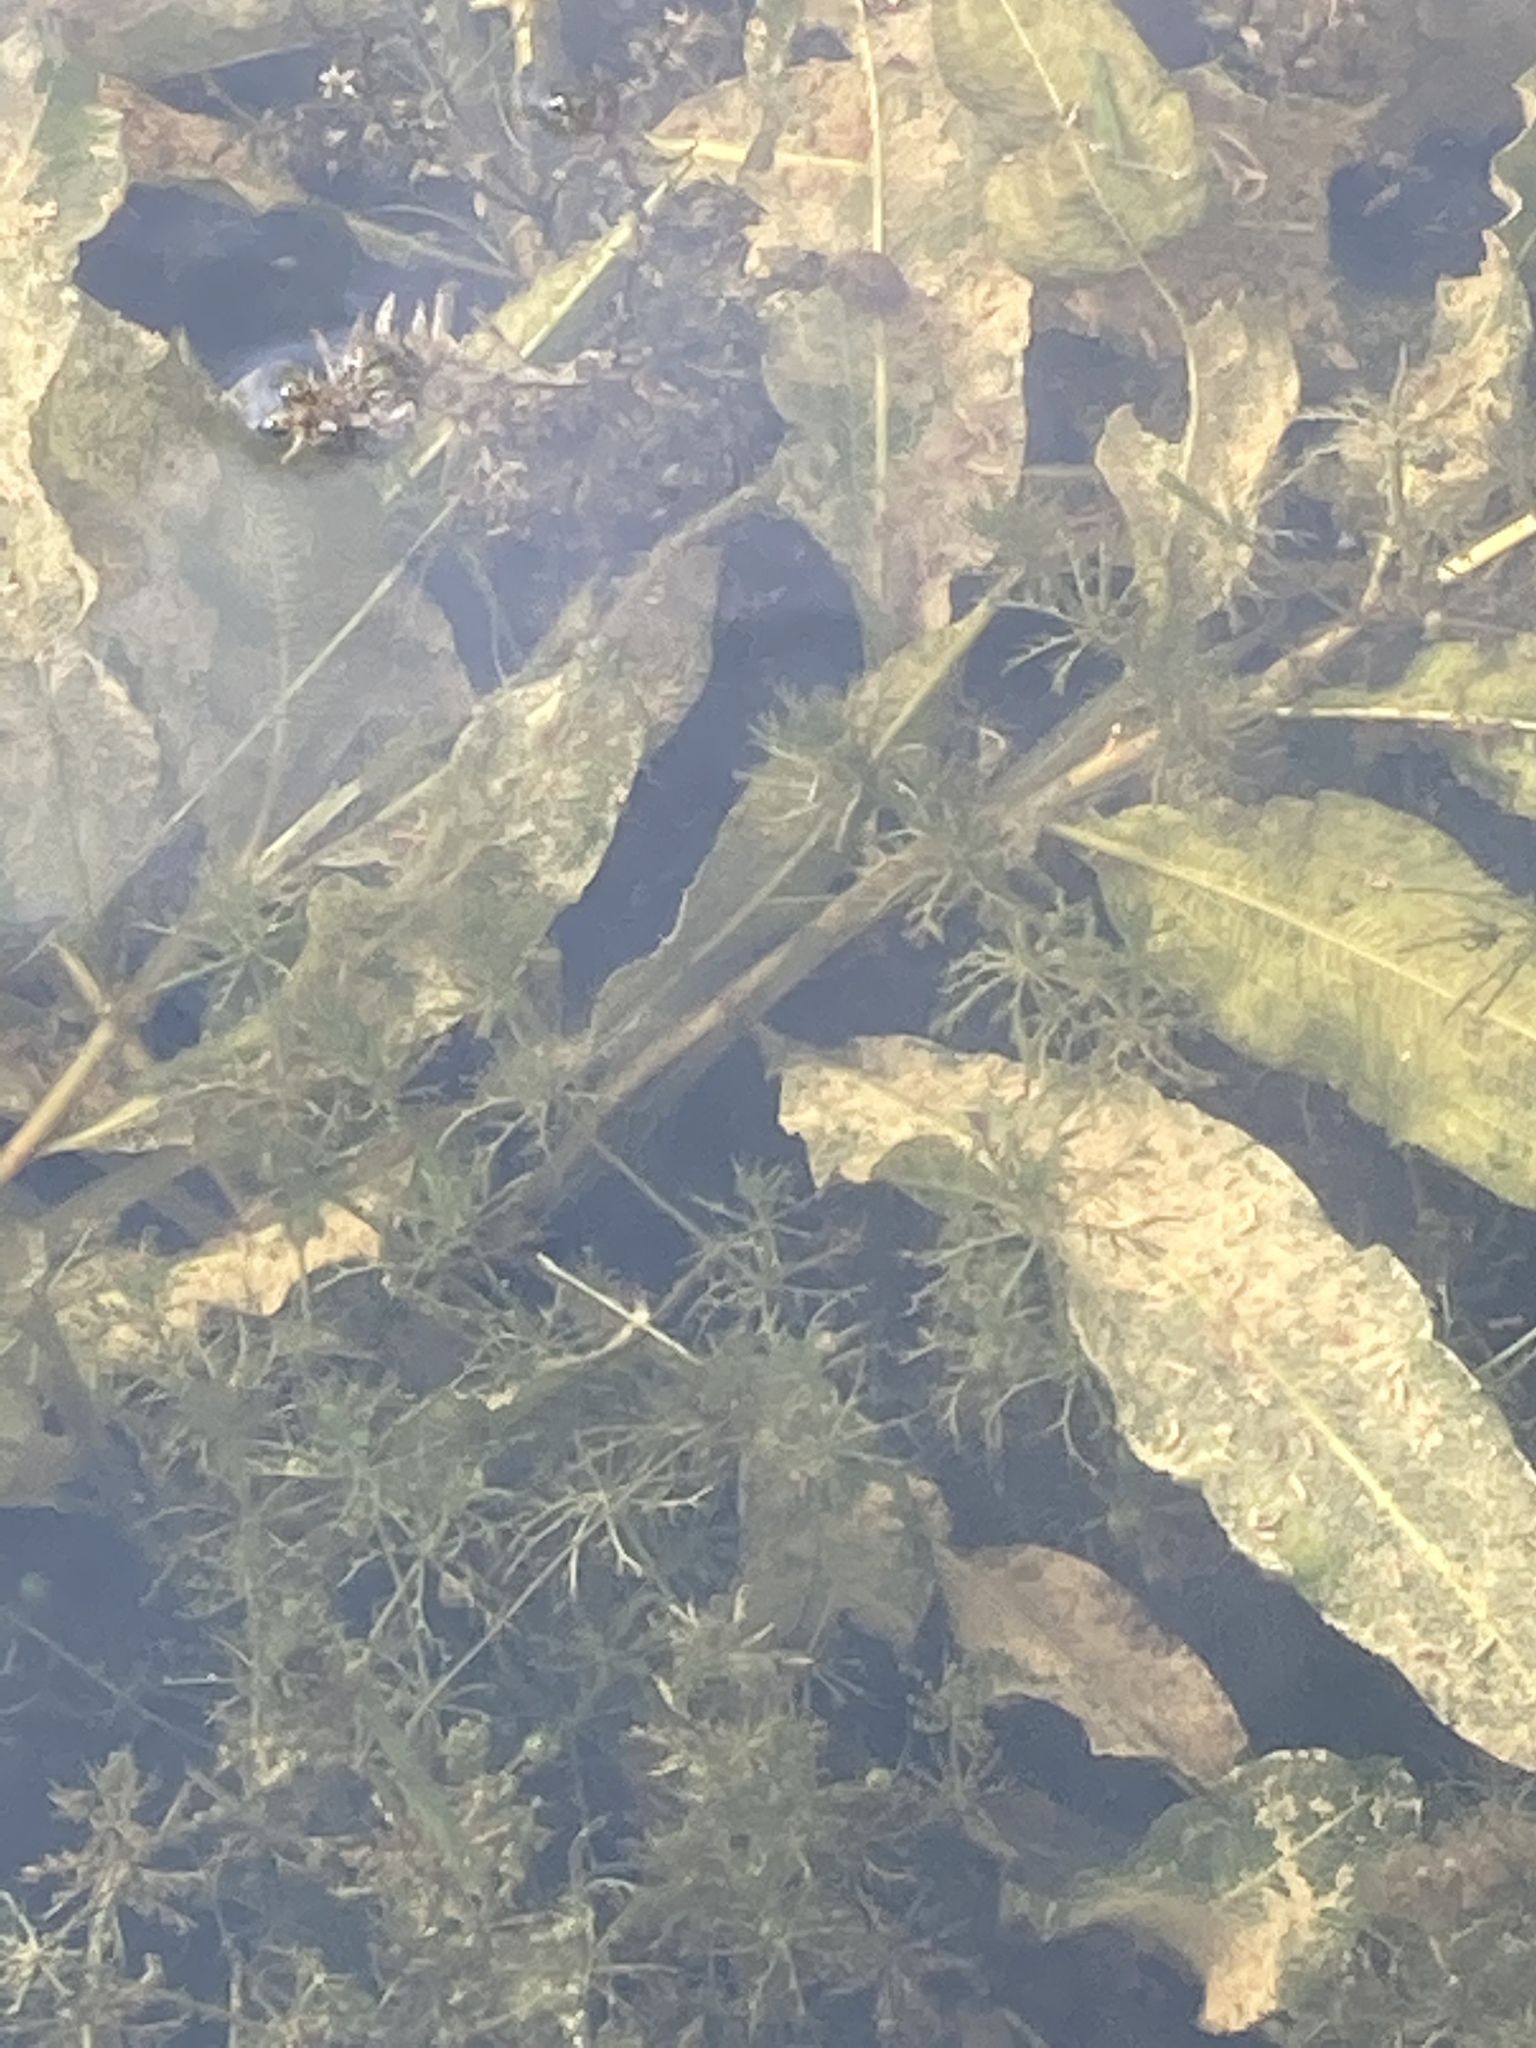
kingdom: Plantae
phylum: Tracheophyta
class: Liliopsida
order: Alismatales
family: Potamogetonaceae
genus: Potamogeton
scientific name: Potamogeton lucens
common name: Shining pondweed
